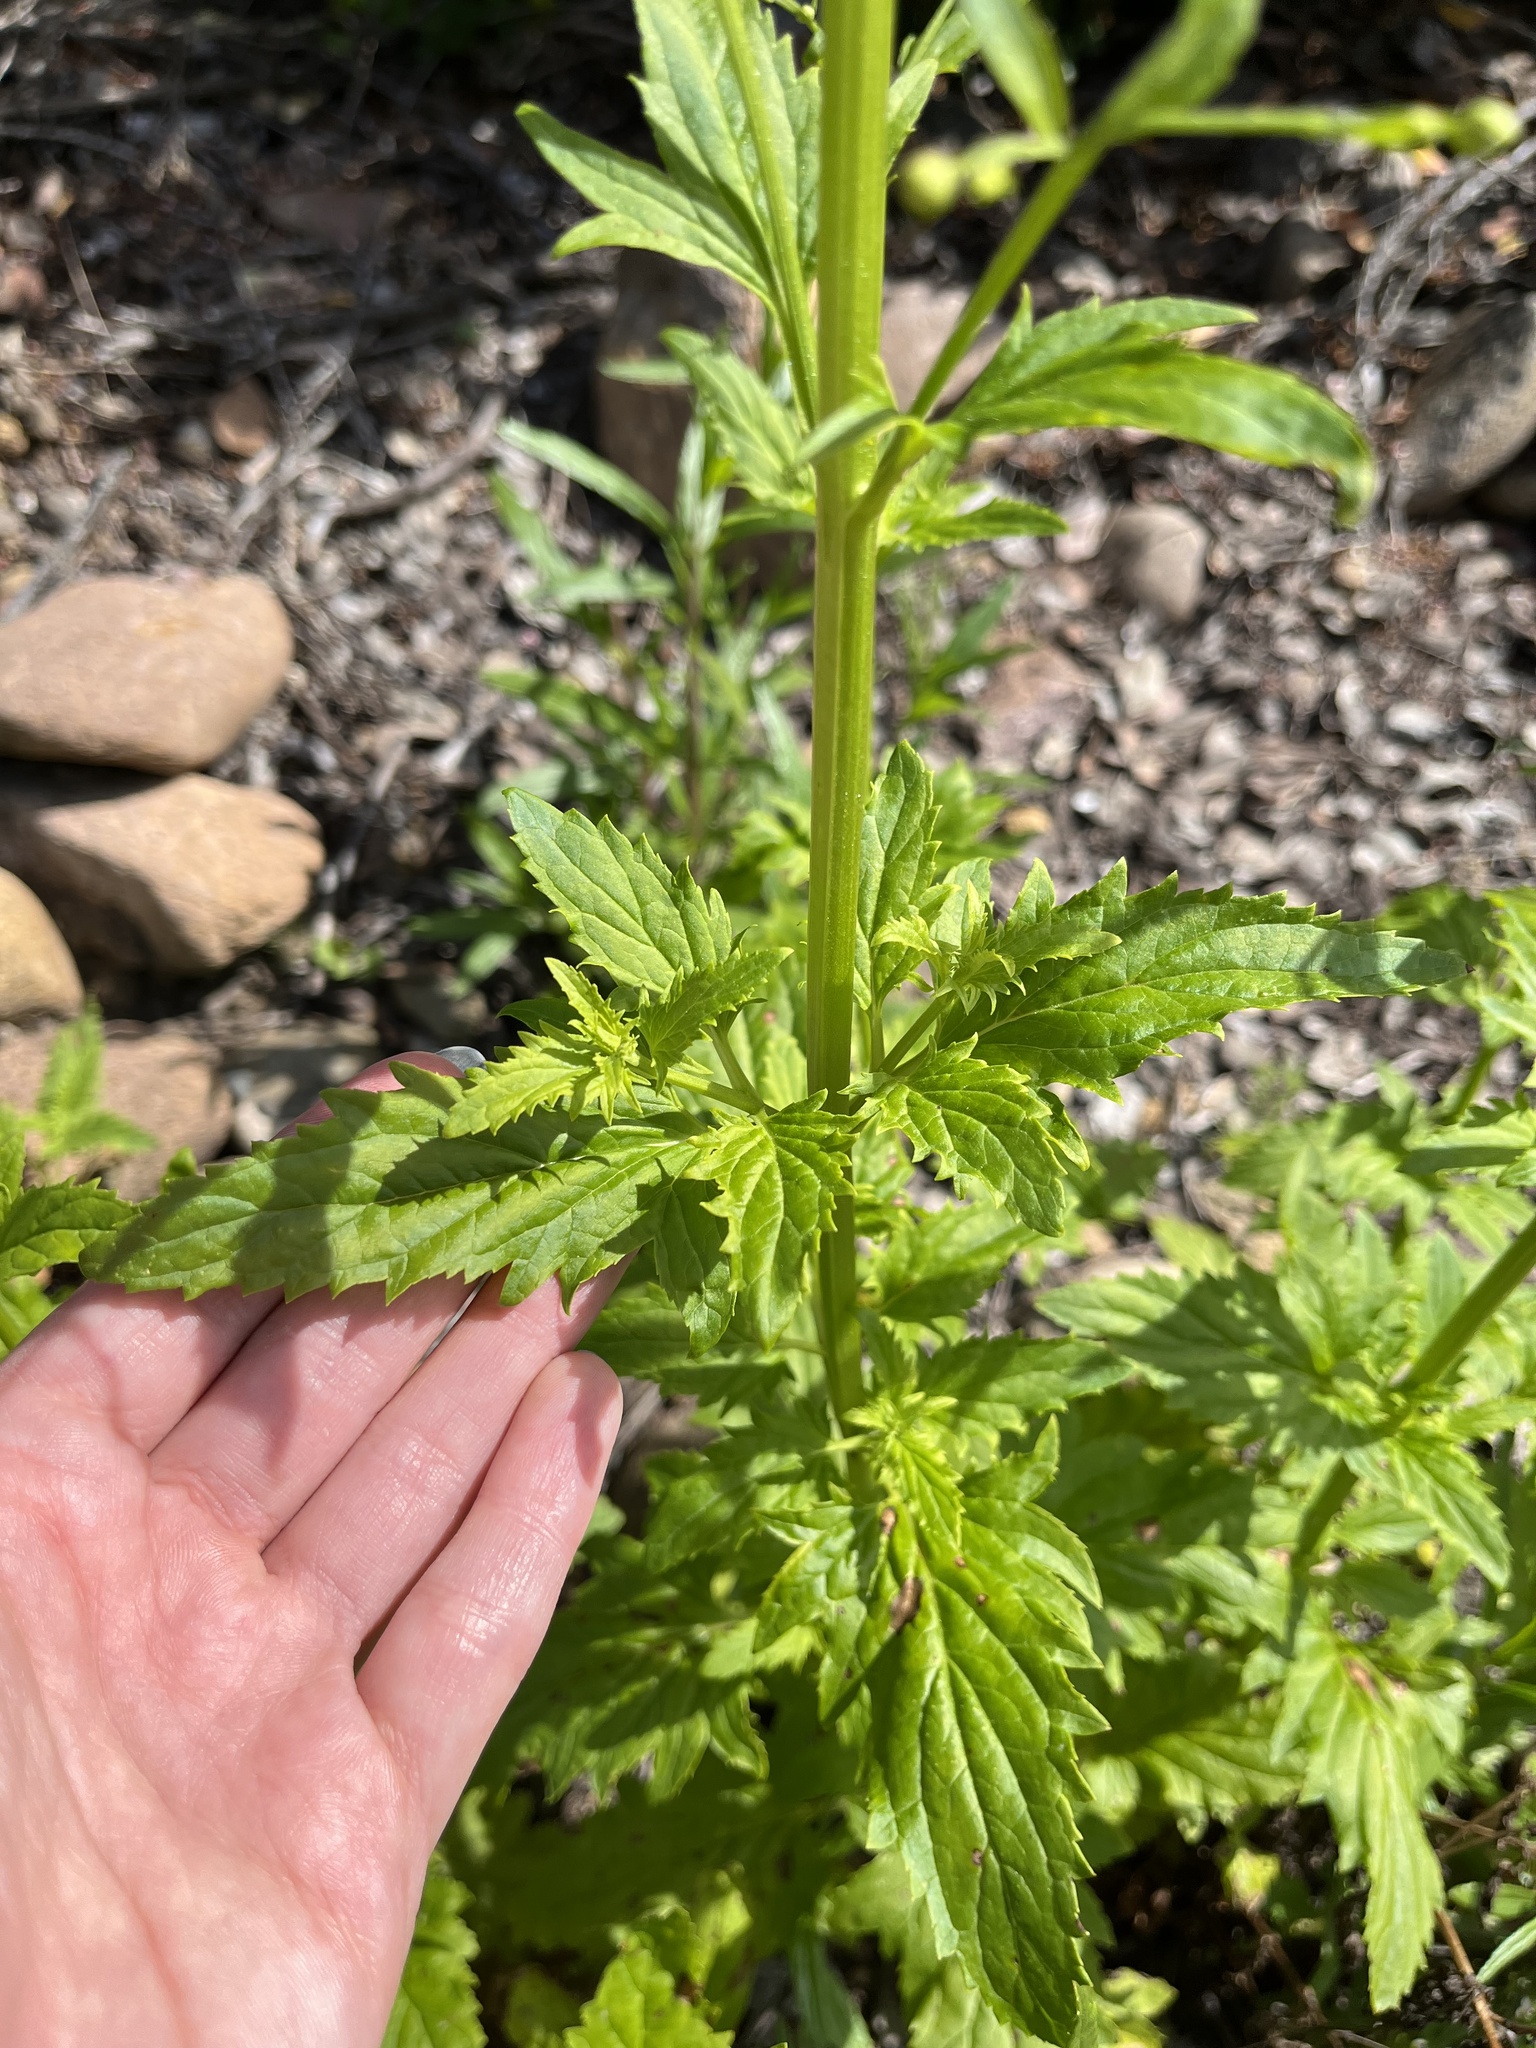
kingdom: Plantae
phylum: Tracheophyta
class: Magnoliopsida
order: Lamiales
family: Scrophulariaceae
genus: Scrophularia
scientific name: Scrophularia californica
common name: California figwort
